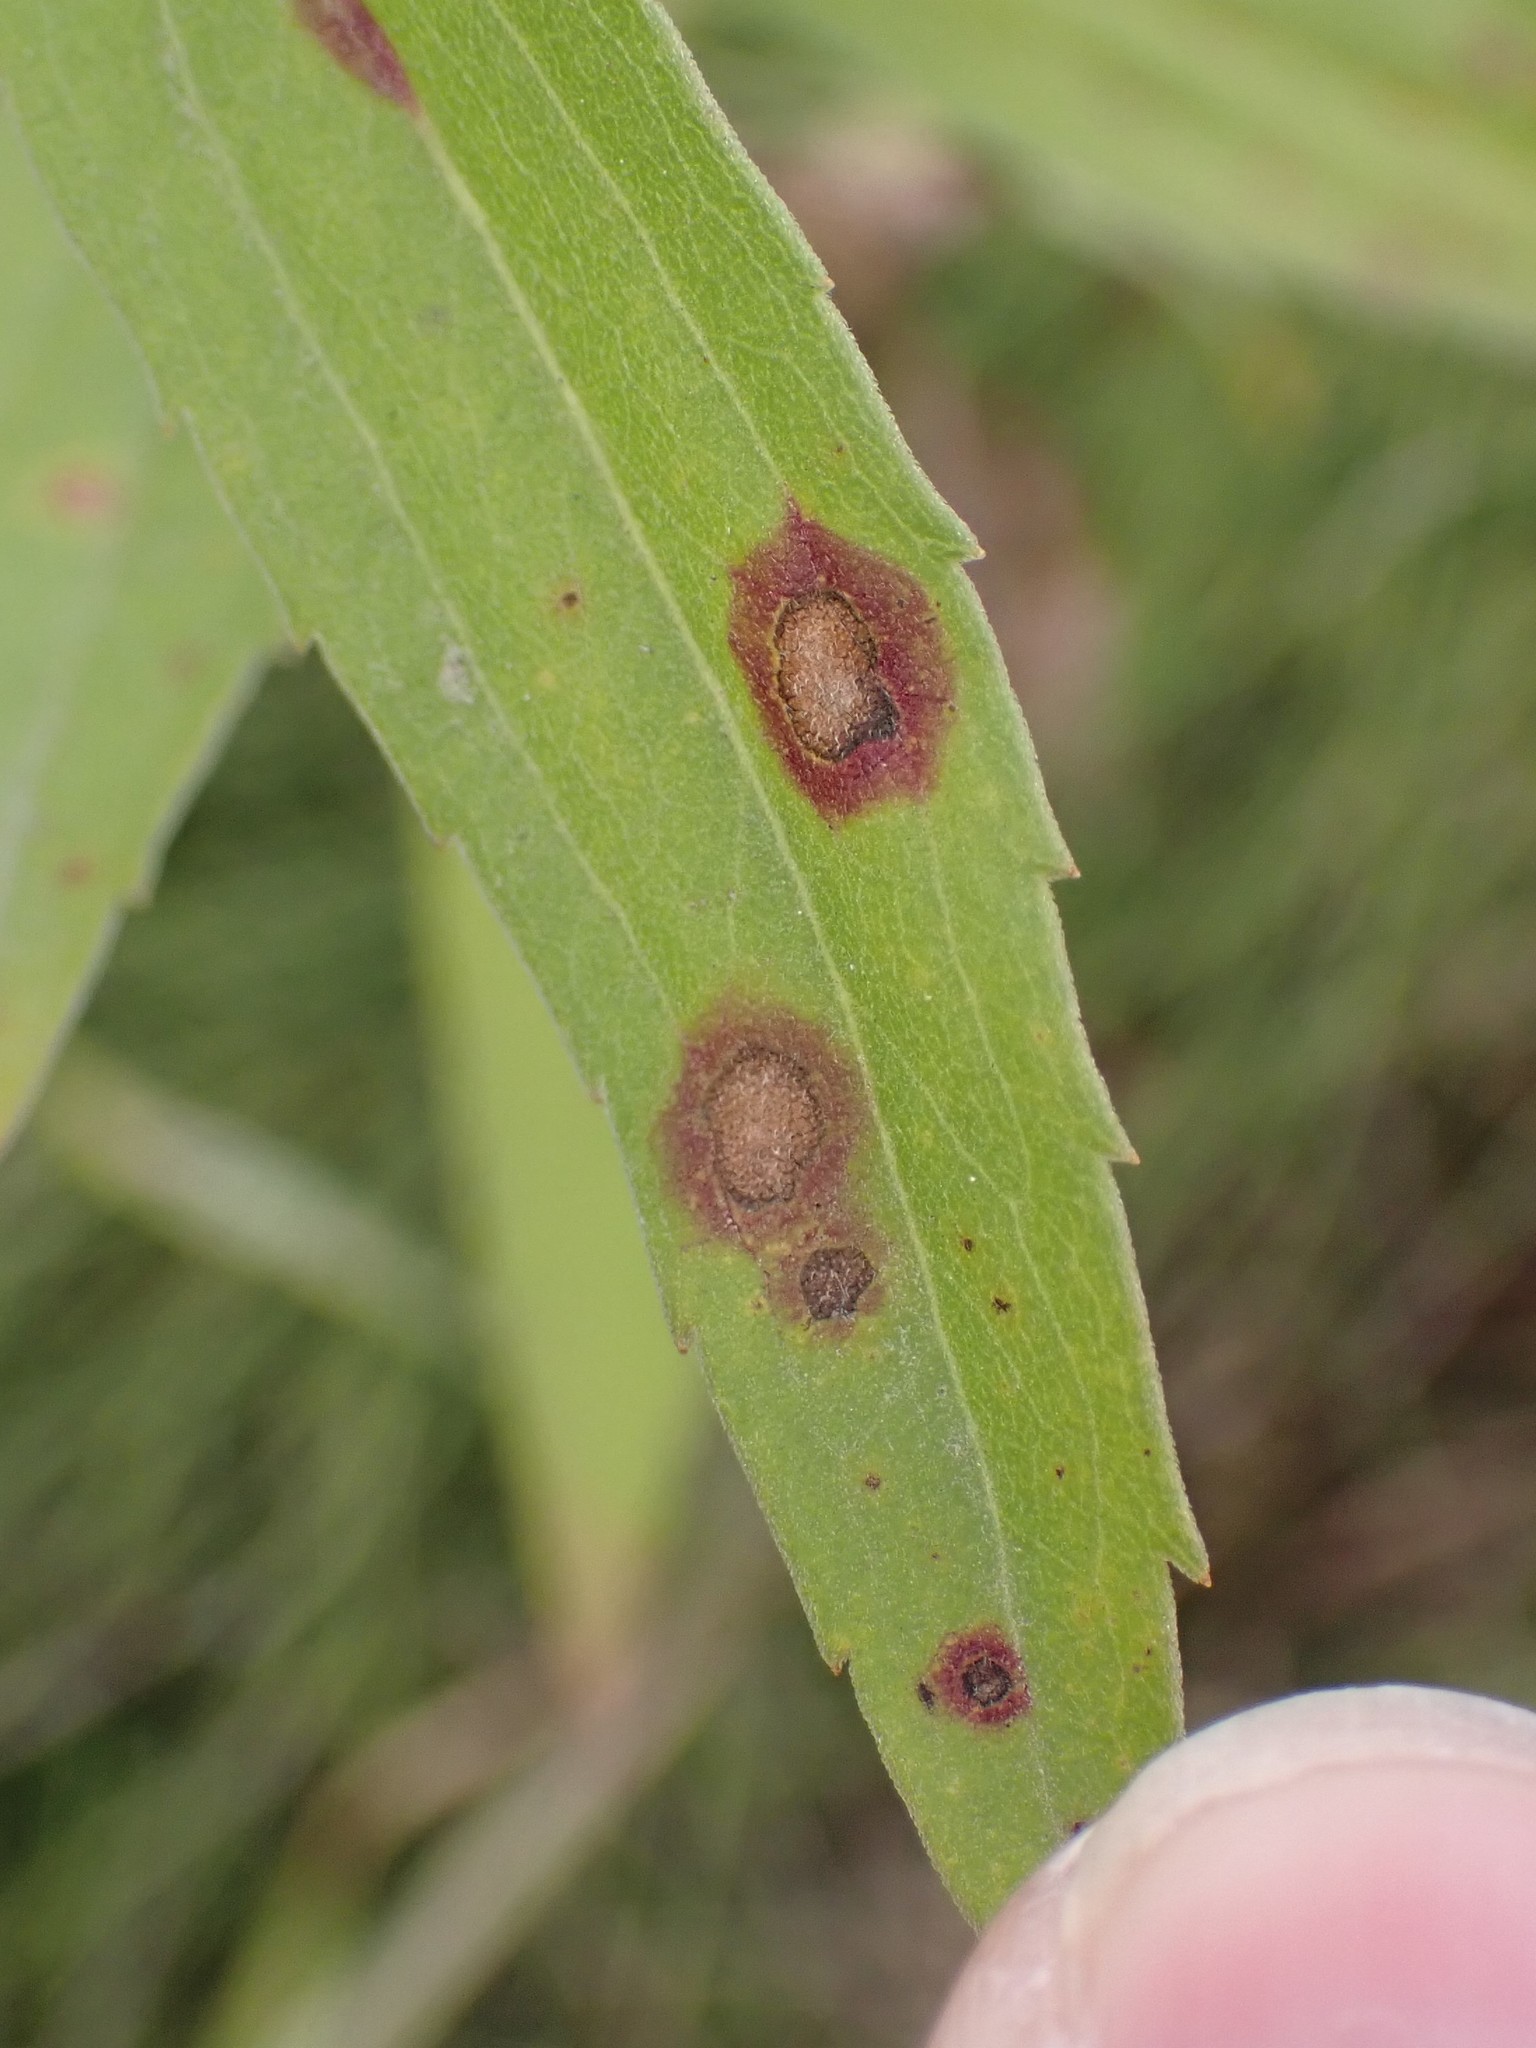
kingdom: Animalia
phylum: Arthropoda
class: Insecta
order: Diptera
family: Cecidomyiidae
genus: Asteromyia
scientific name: Asteromyia carbonifera
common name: Carbonifera goldenrod gall midge
